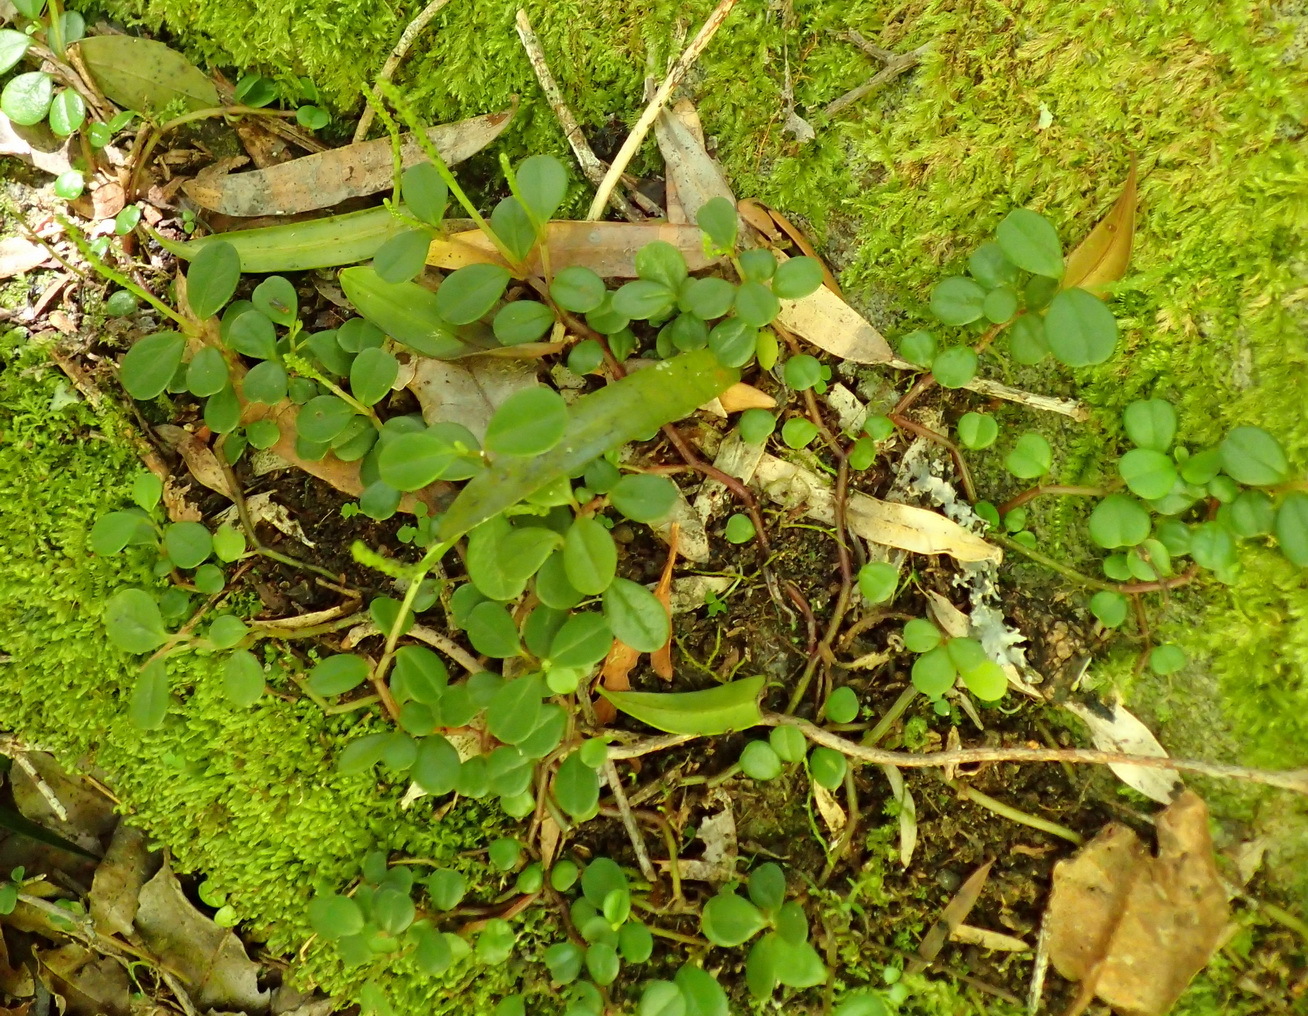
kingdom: Plantae
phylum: Tracheophyta
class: Magnoliopsida
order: Piperales
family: Piperaceae
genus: Peperomia
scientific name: Peperomia retusa
